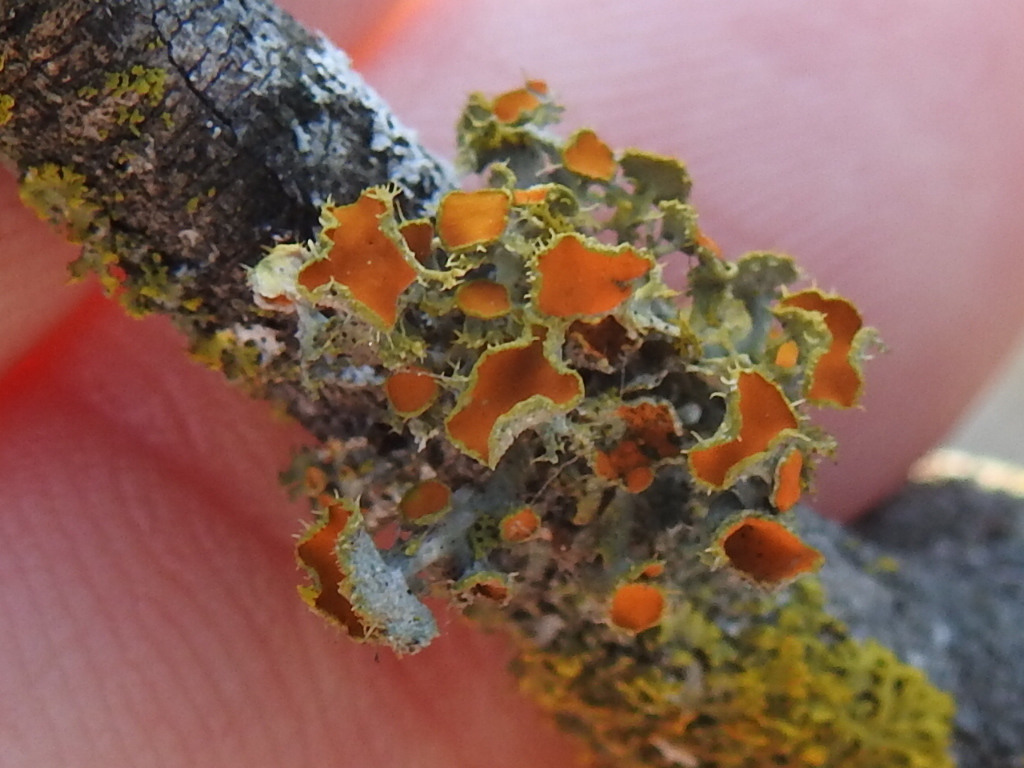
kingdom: Fungi
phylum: Ascomycota
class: Lecanoromycetes
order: Teloschistales
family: Teloschistaceae
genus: Niorma
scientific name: Niorma chrysophthalma
